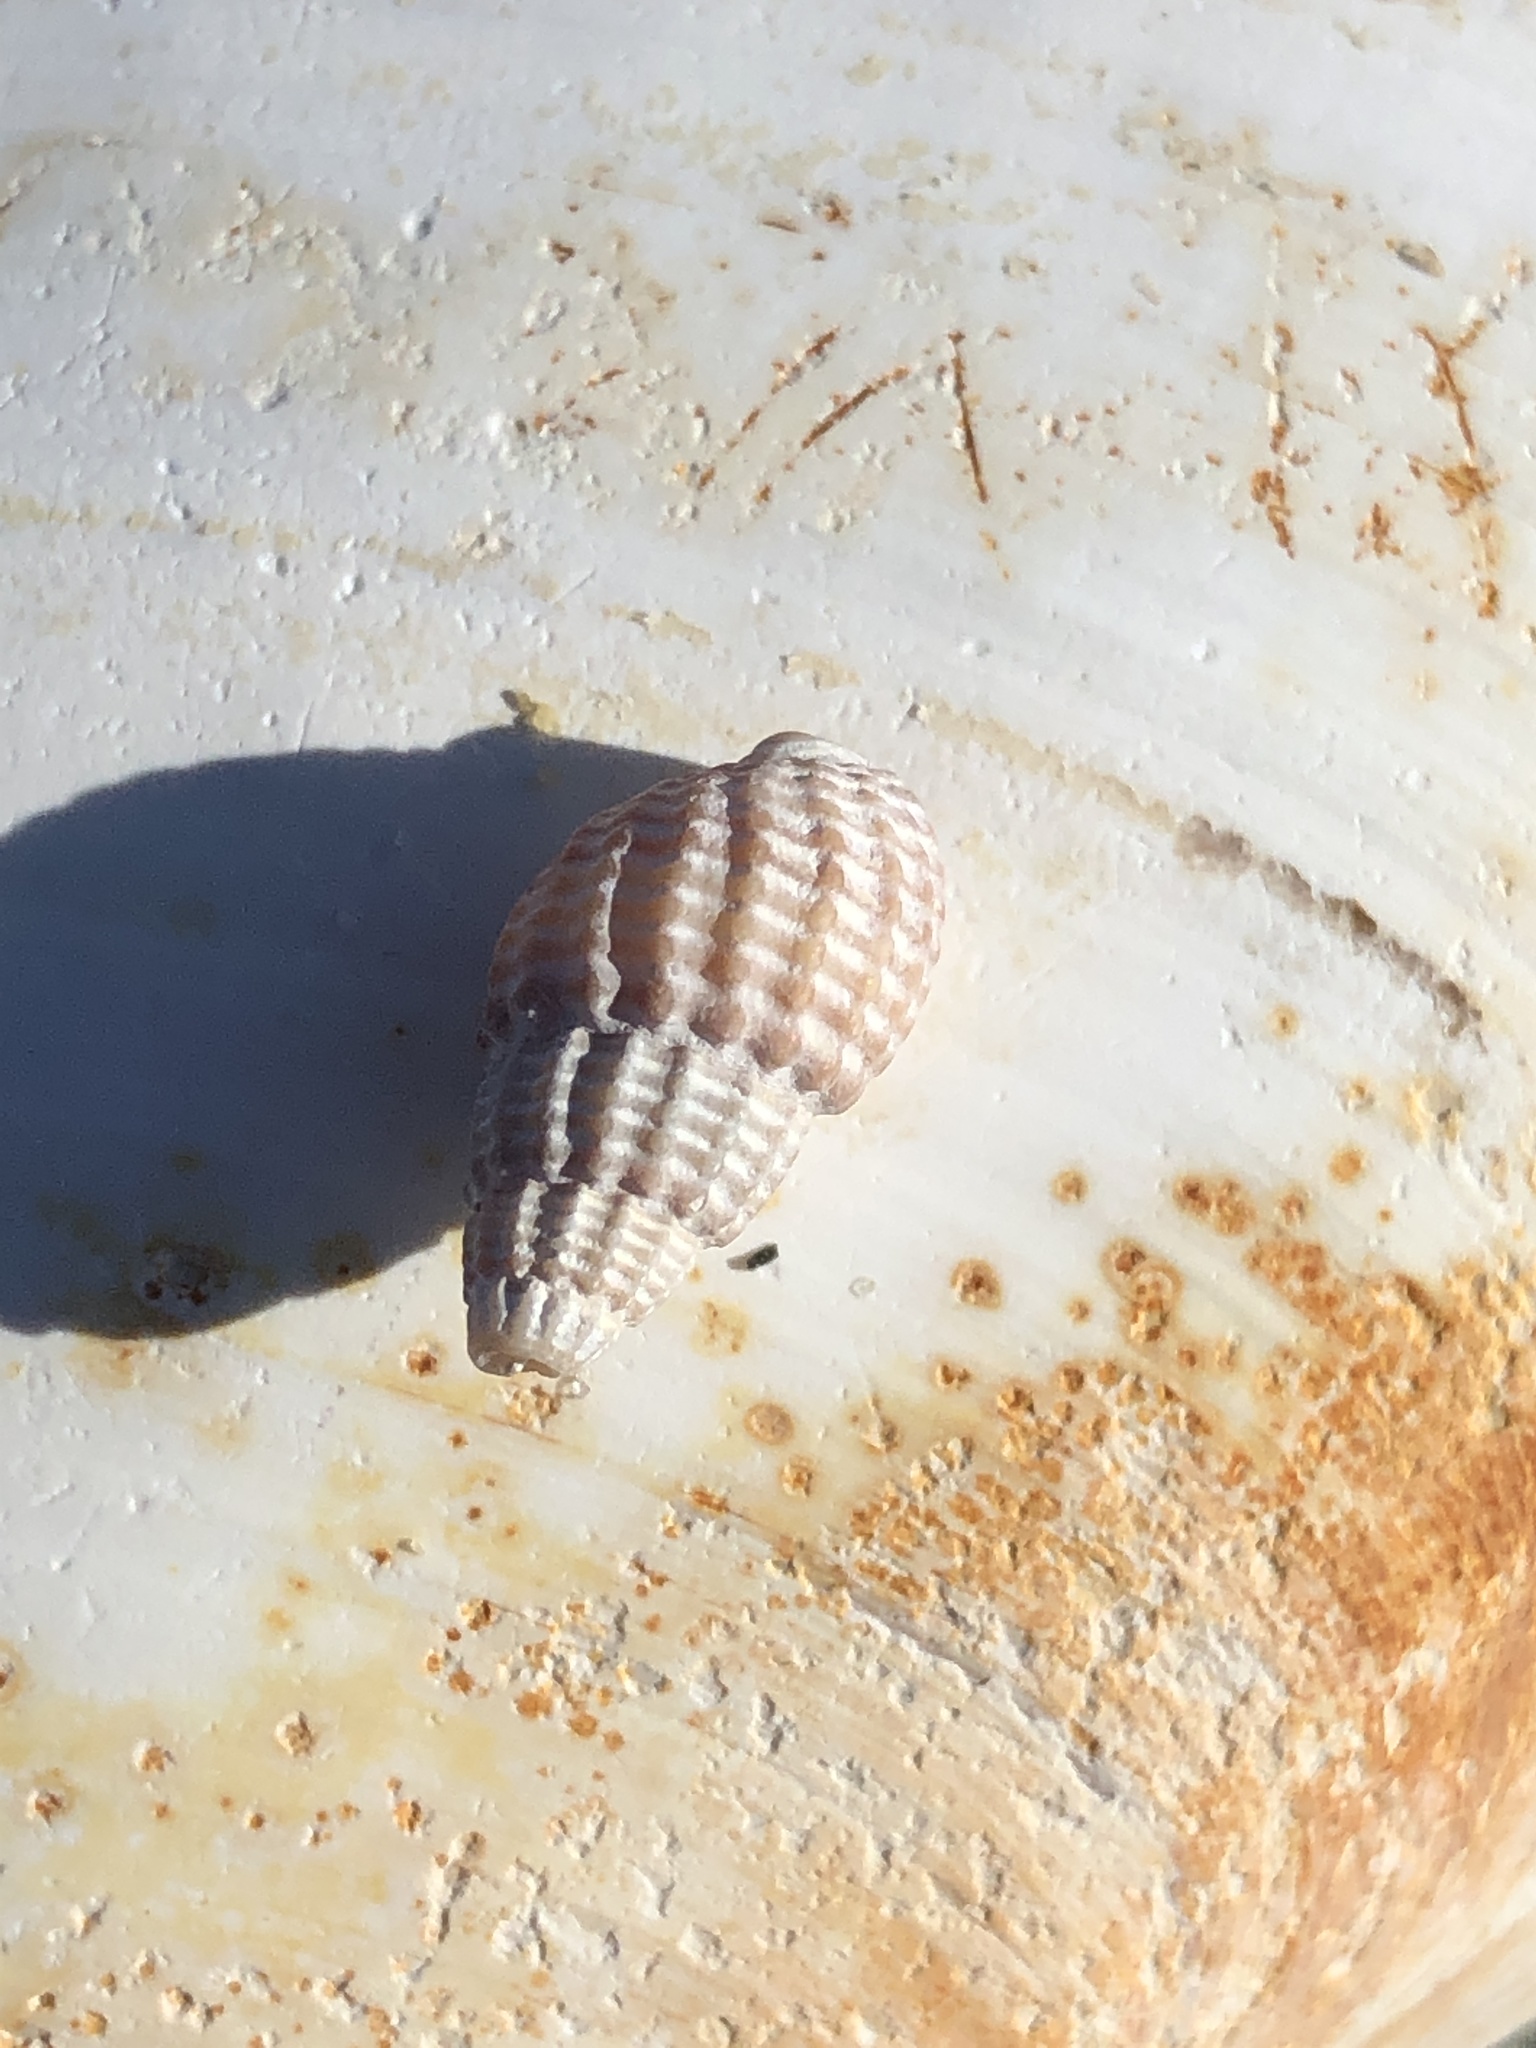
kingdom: Animalia
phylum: Mollusca
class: Gastropoda
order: Neogastropoda
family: Nassariidae
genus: Ilyanassa
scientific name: Ilyanassa trivittata
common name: Three-line mudsnail
